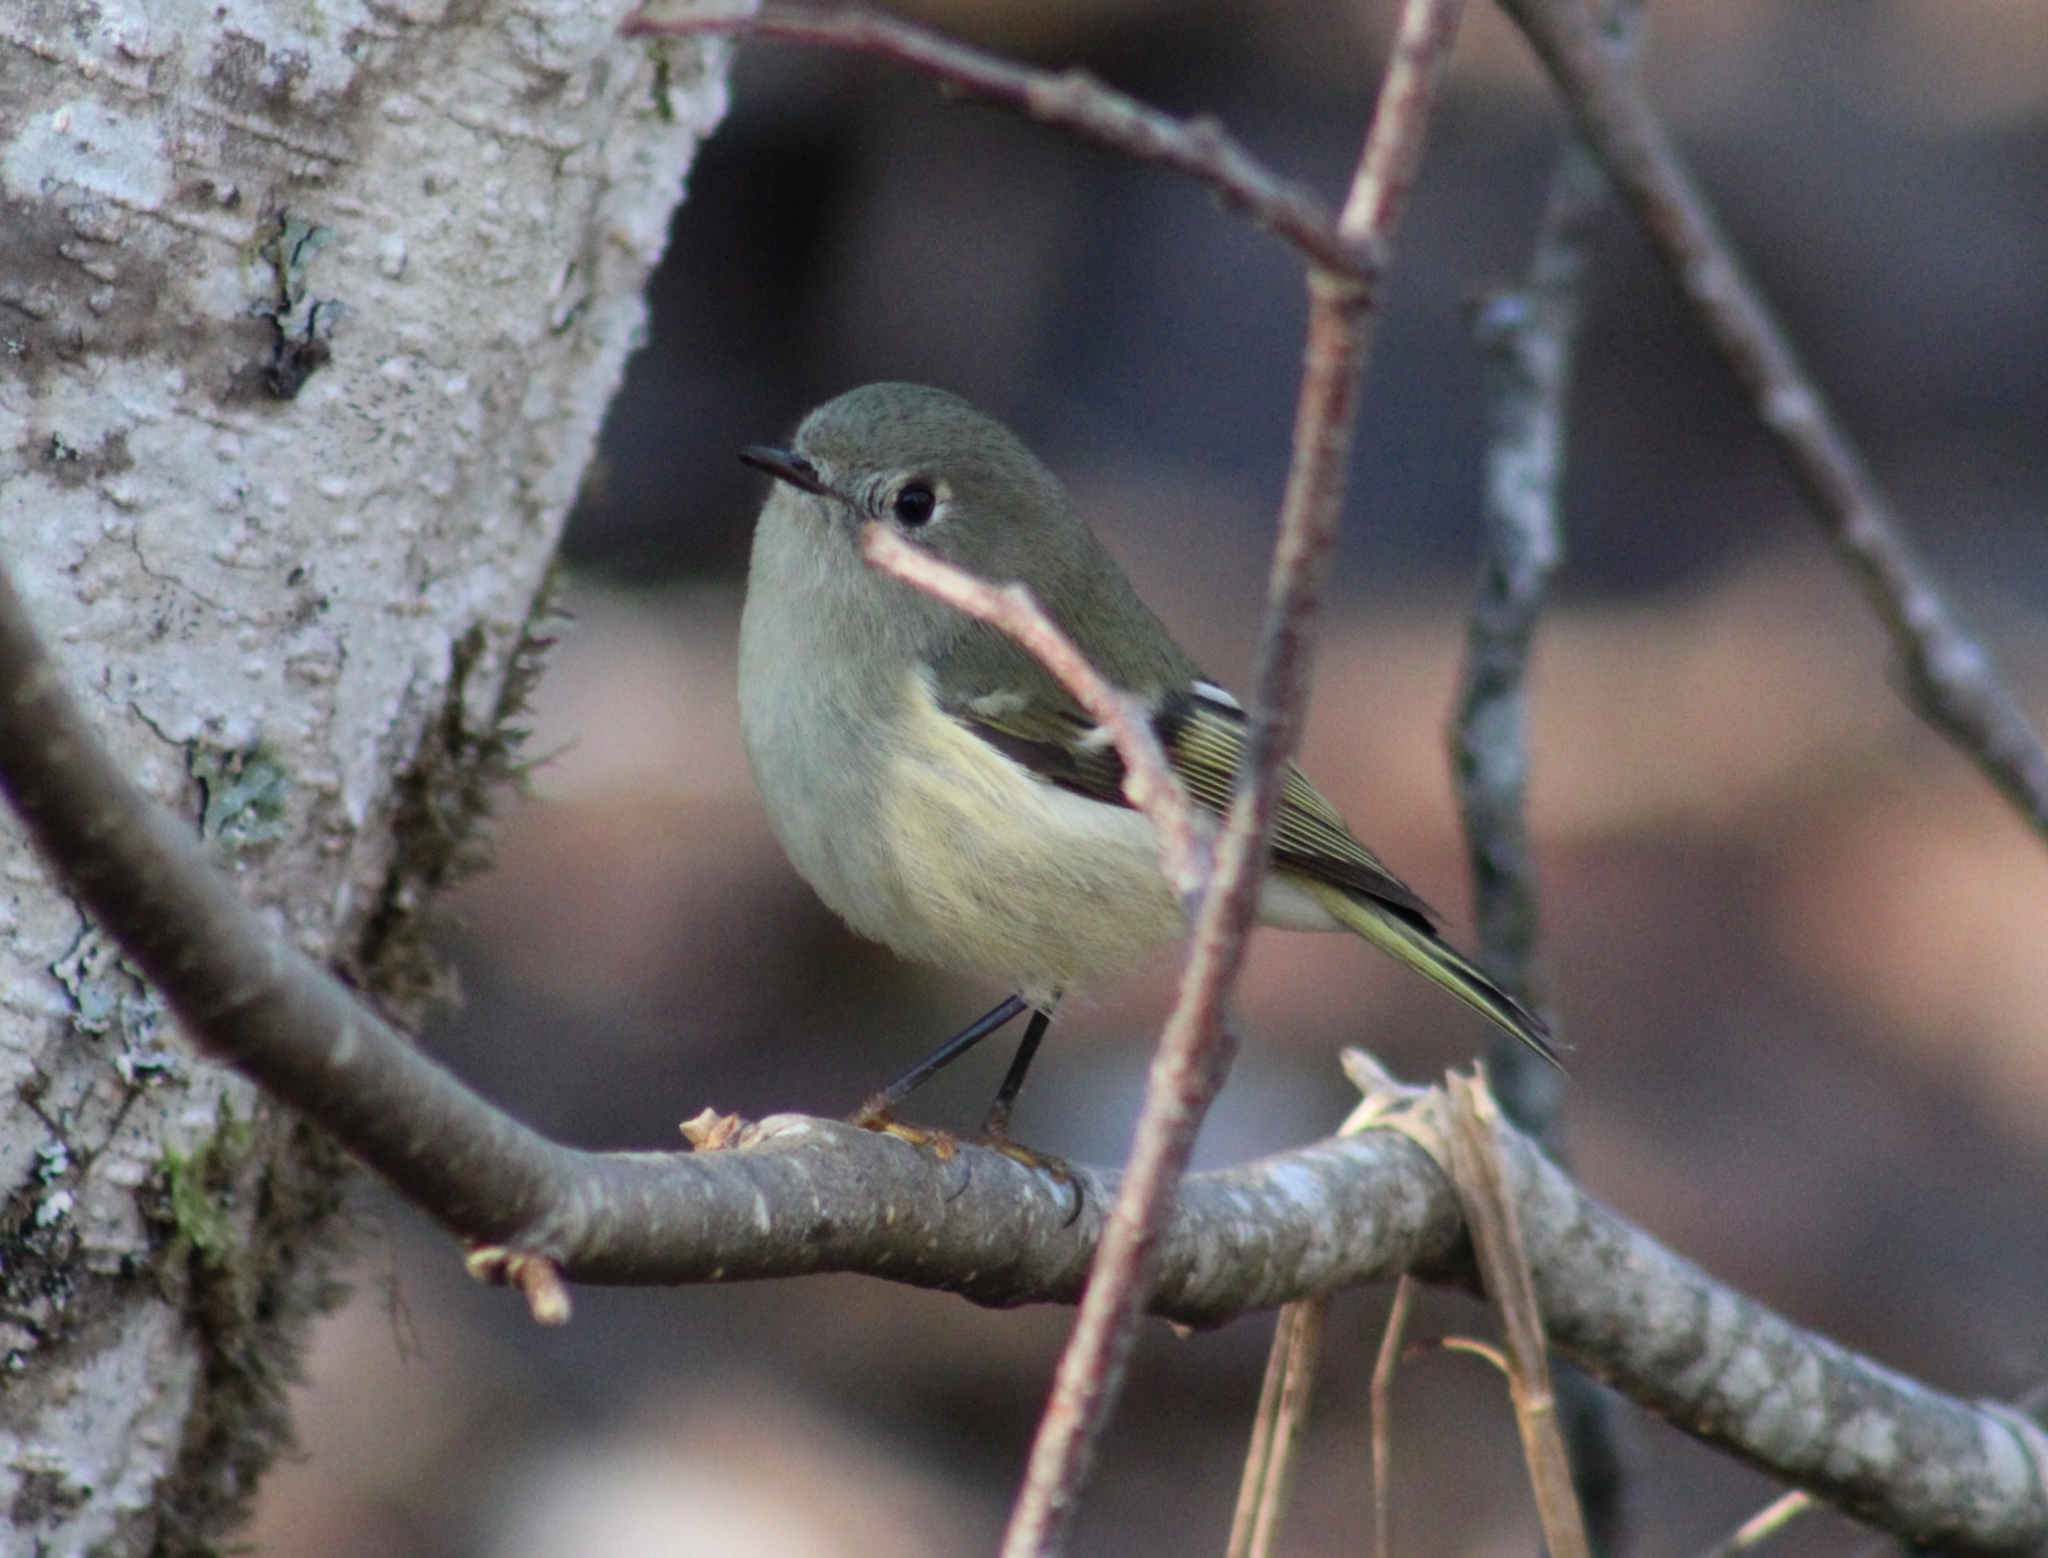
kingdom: Animalia
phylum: Chordata
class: Aves
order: Passeriformes
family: Regulidae
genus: Regulus
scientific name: Regulus calendula
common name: Ruby-crowned kinglet
